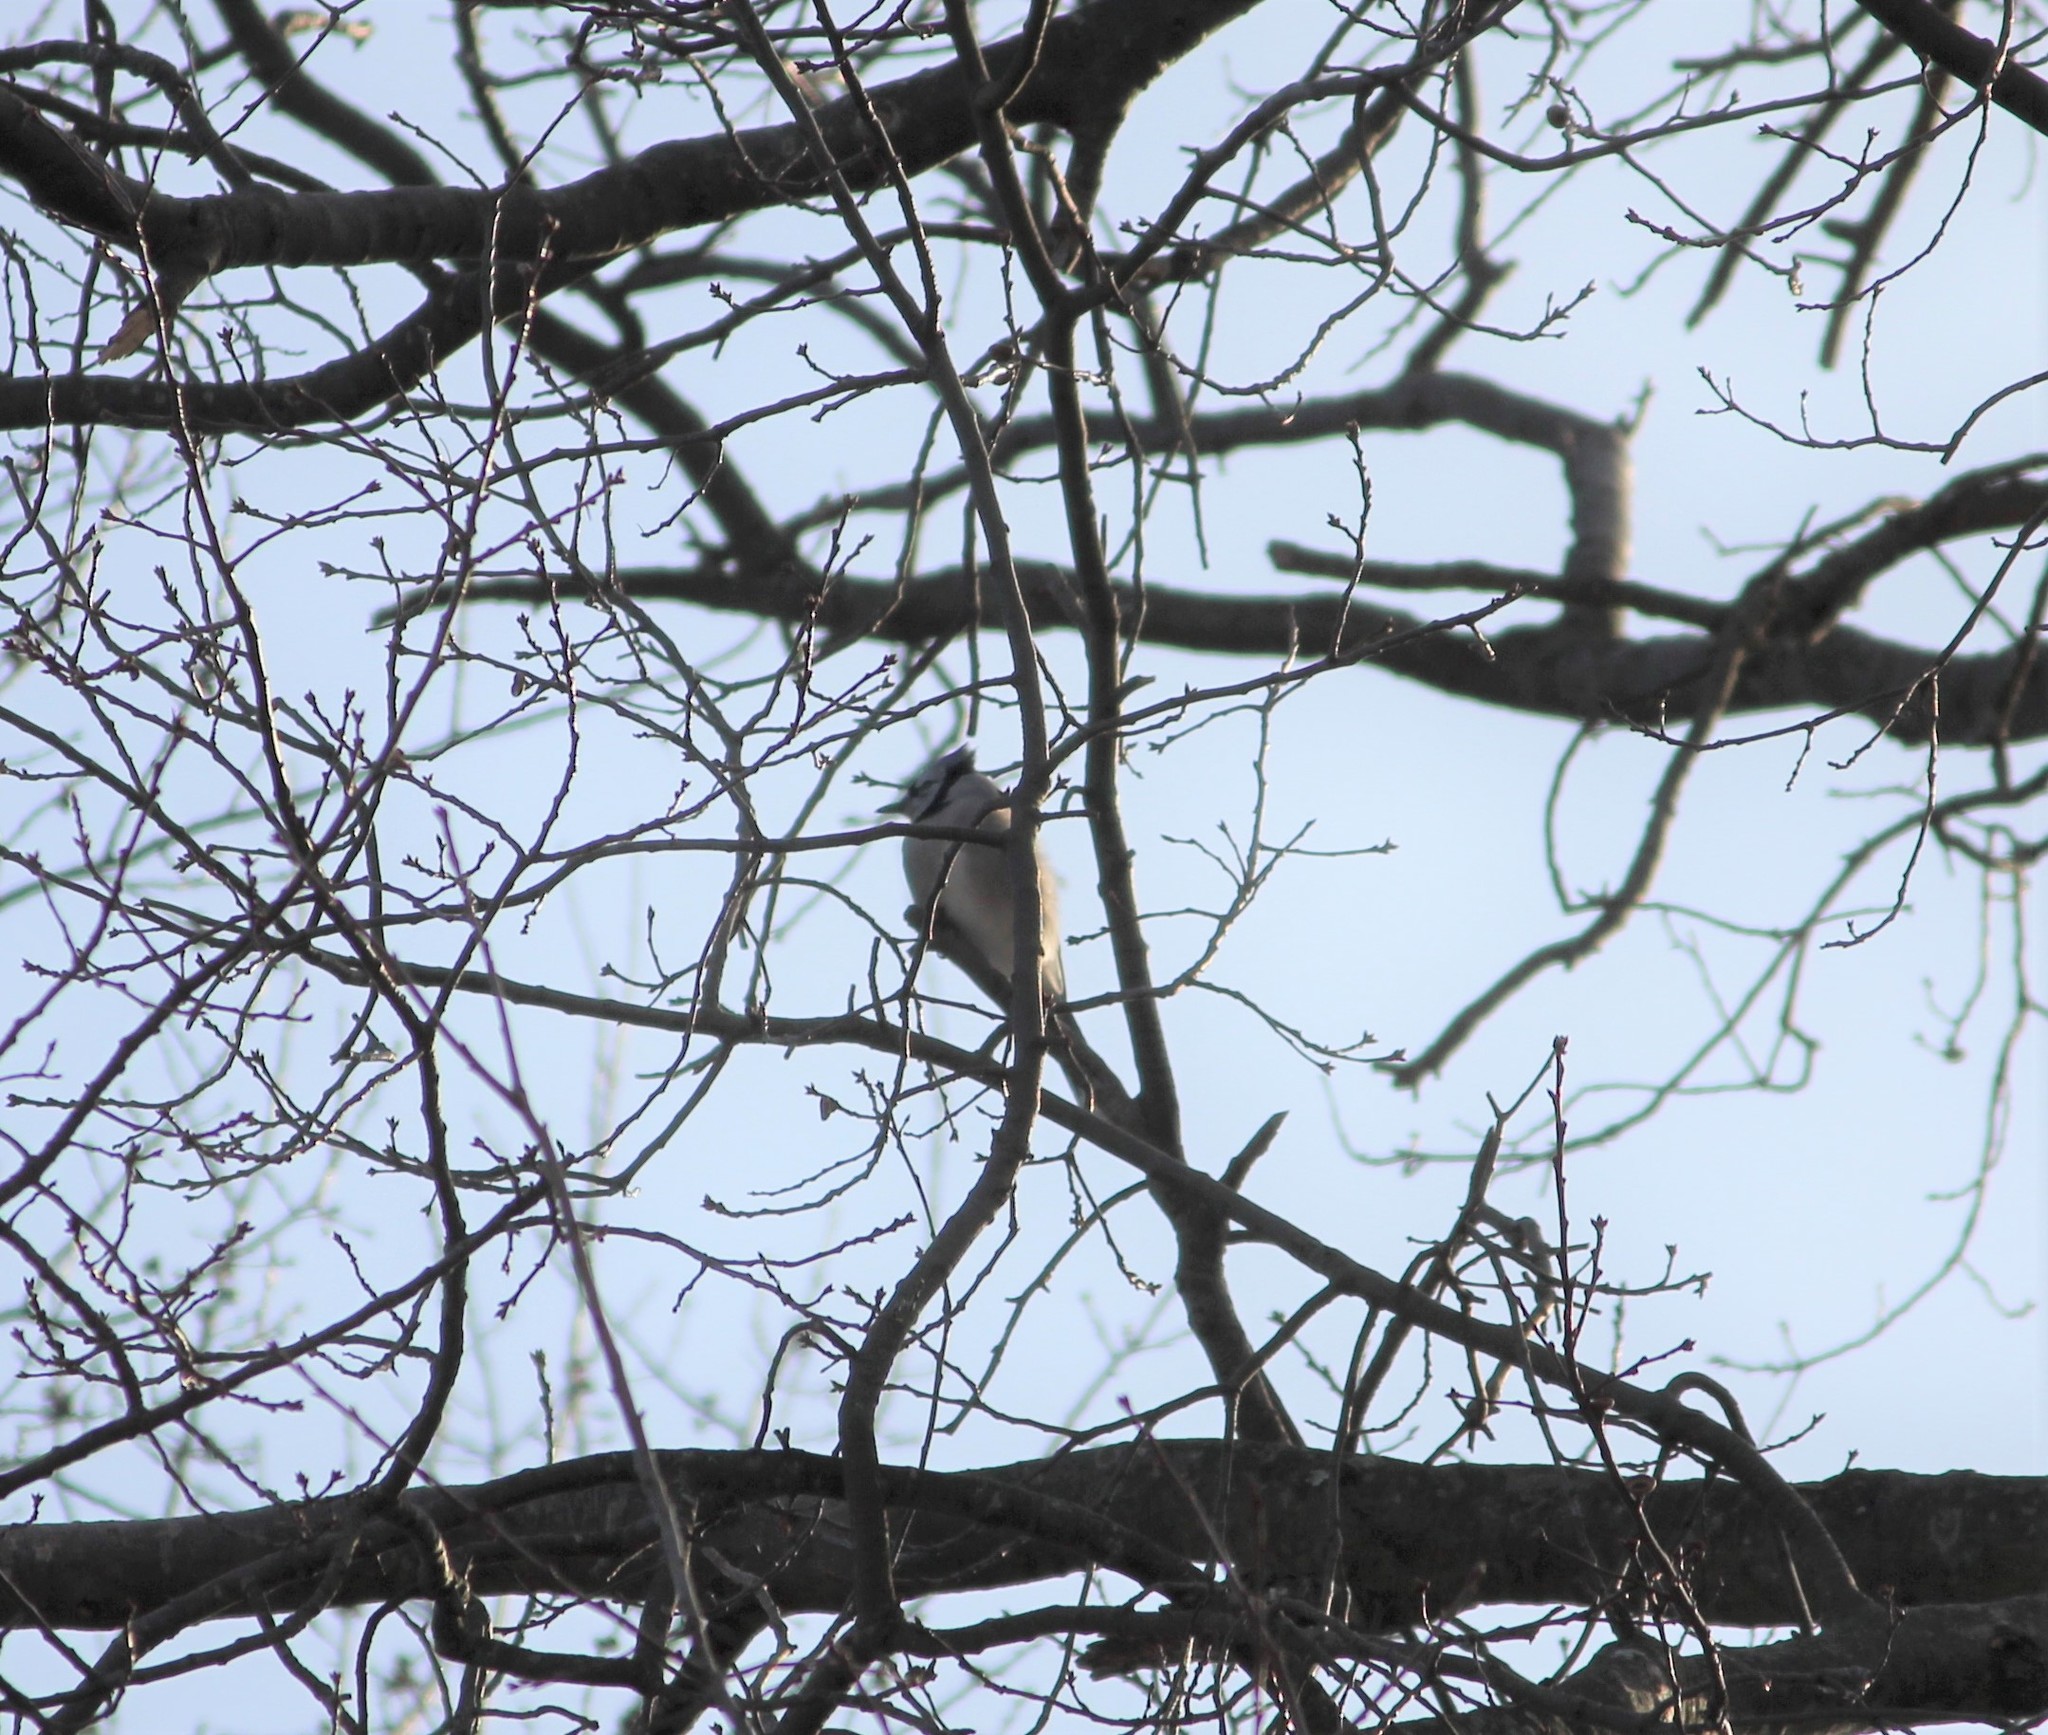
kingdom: Animalia
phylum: Chordata
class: Aves
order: Passeriformes
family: Corvidae
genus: Cyanocitta
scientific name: Cyanocitta cristata
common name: Blue jay
